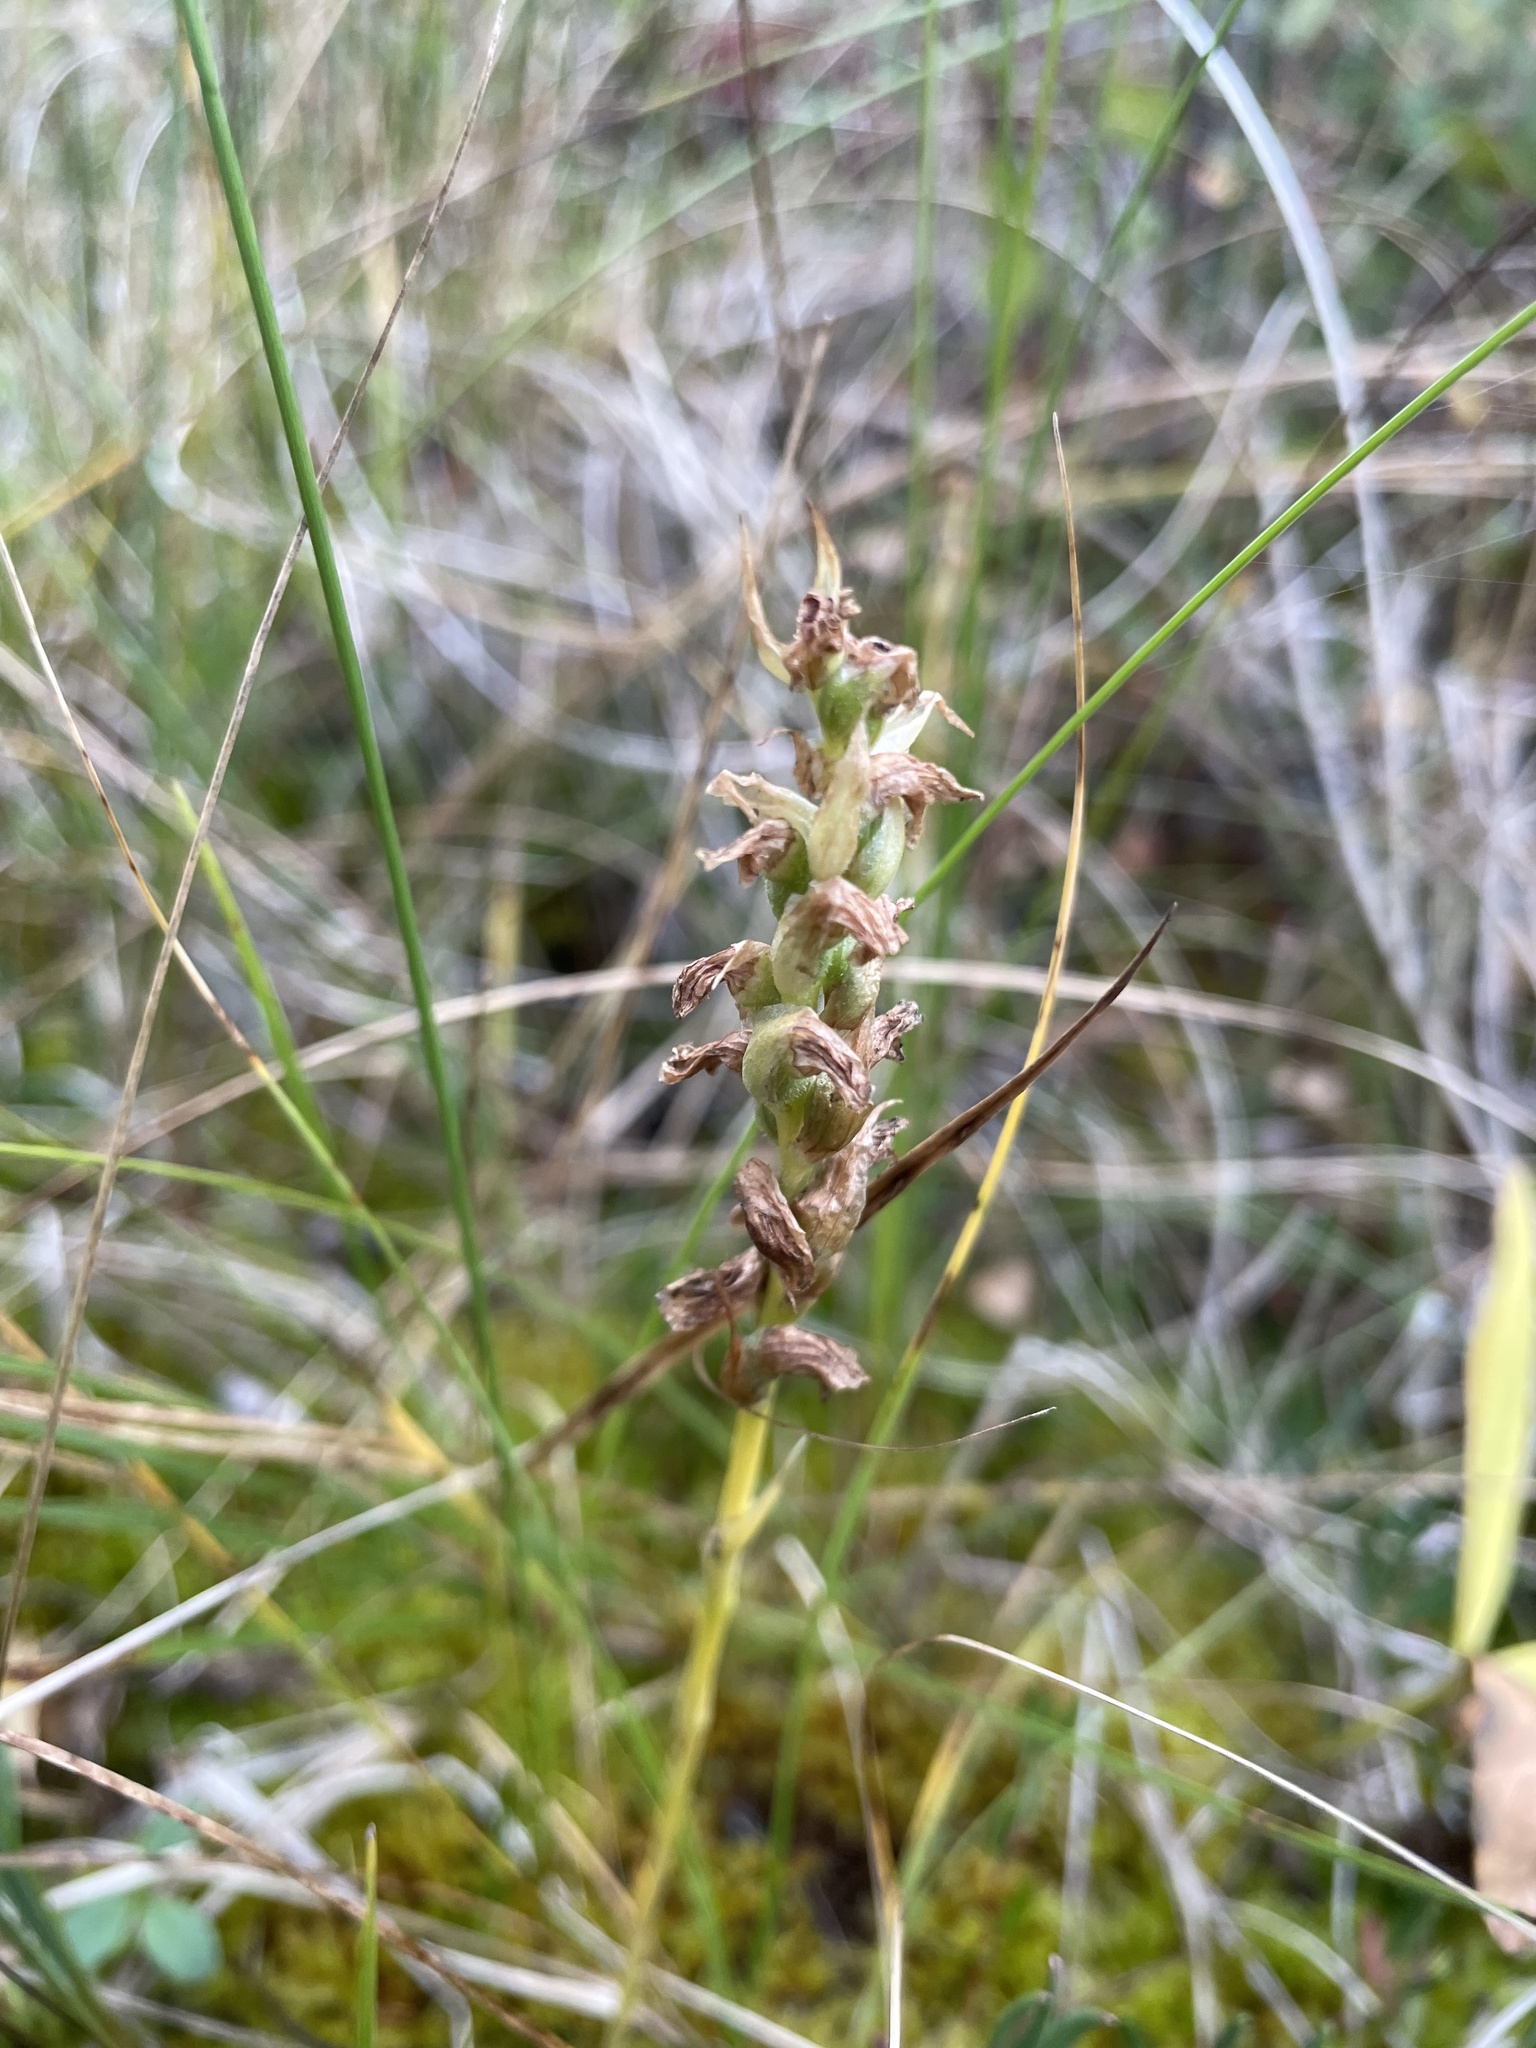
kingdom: Plantae
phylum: Tracheophyta
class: Liliopsida
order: Asparagales
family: Orchidaceae
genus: Spiranthes
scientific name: Spiranthes romanzoffiana
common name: Irish lady's-tresses
